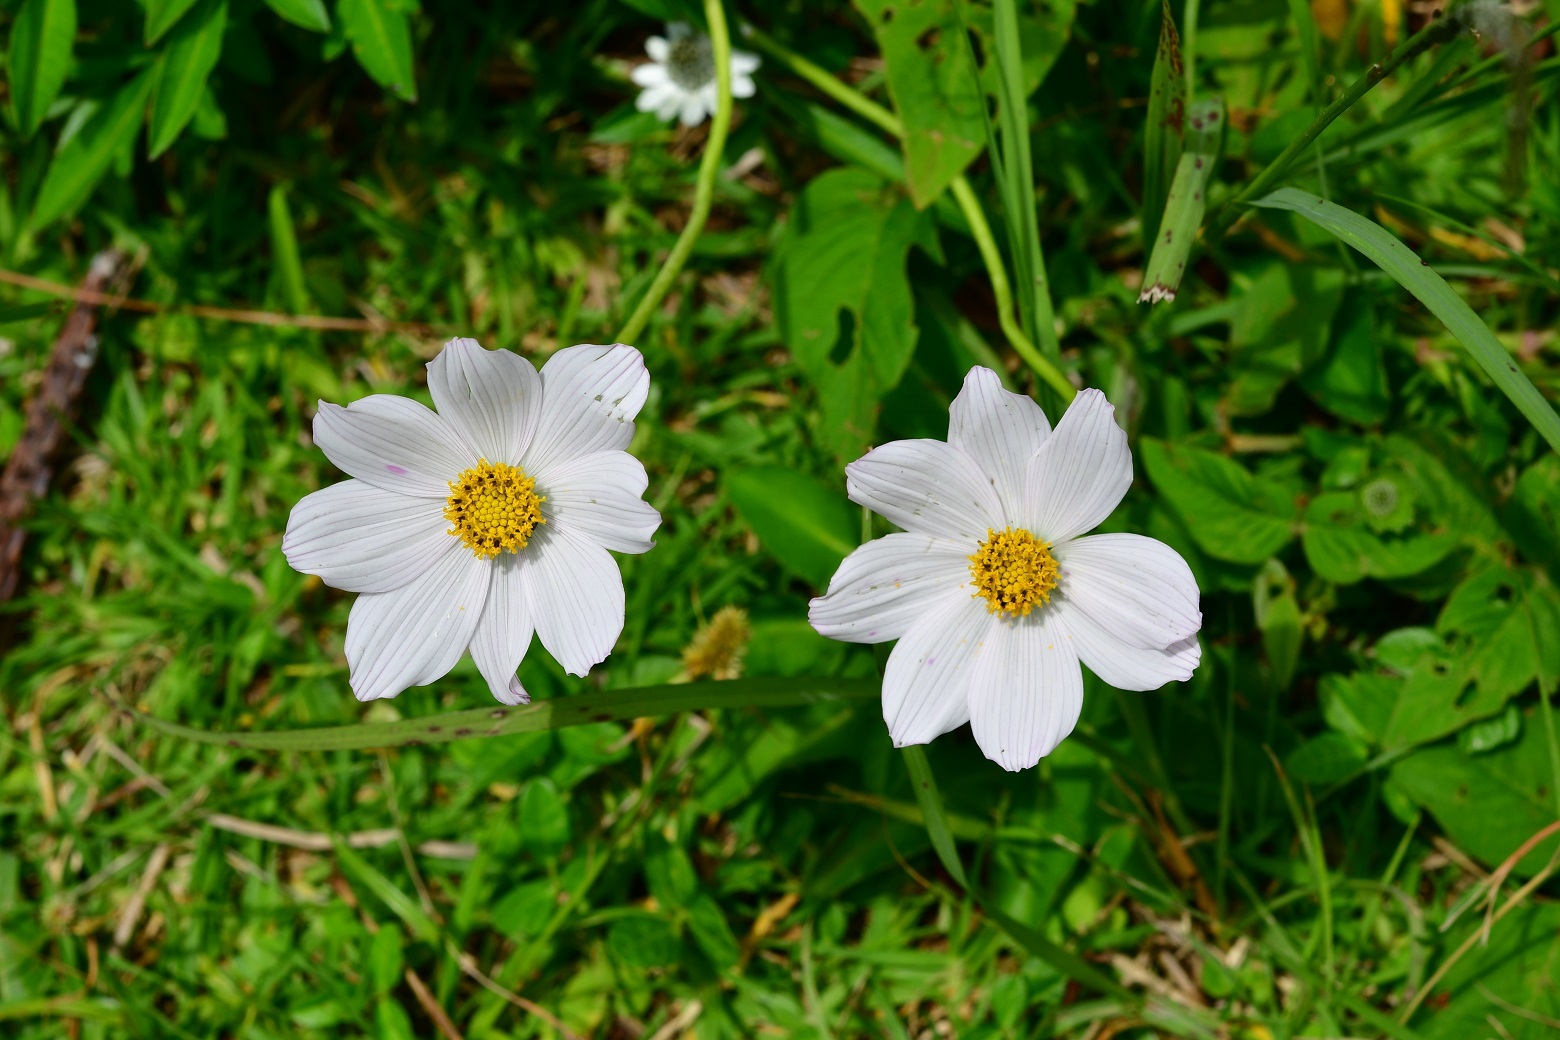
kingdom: Plantae
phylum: Tracheophyta
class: Magnoliopsida
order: Asterales
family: Asteraceae
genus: Cosmos
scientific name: Cosmos diversifolius
